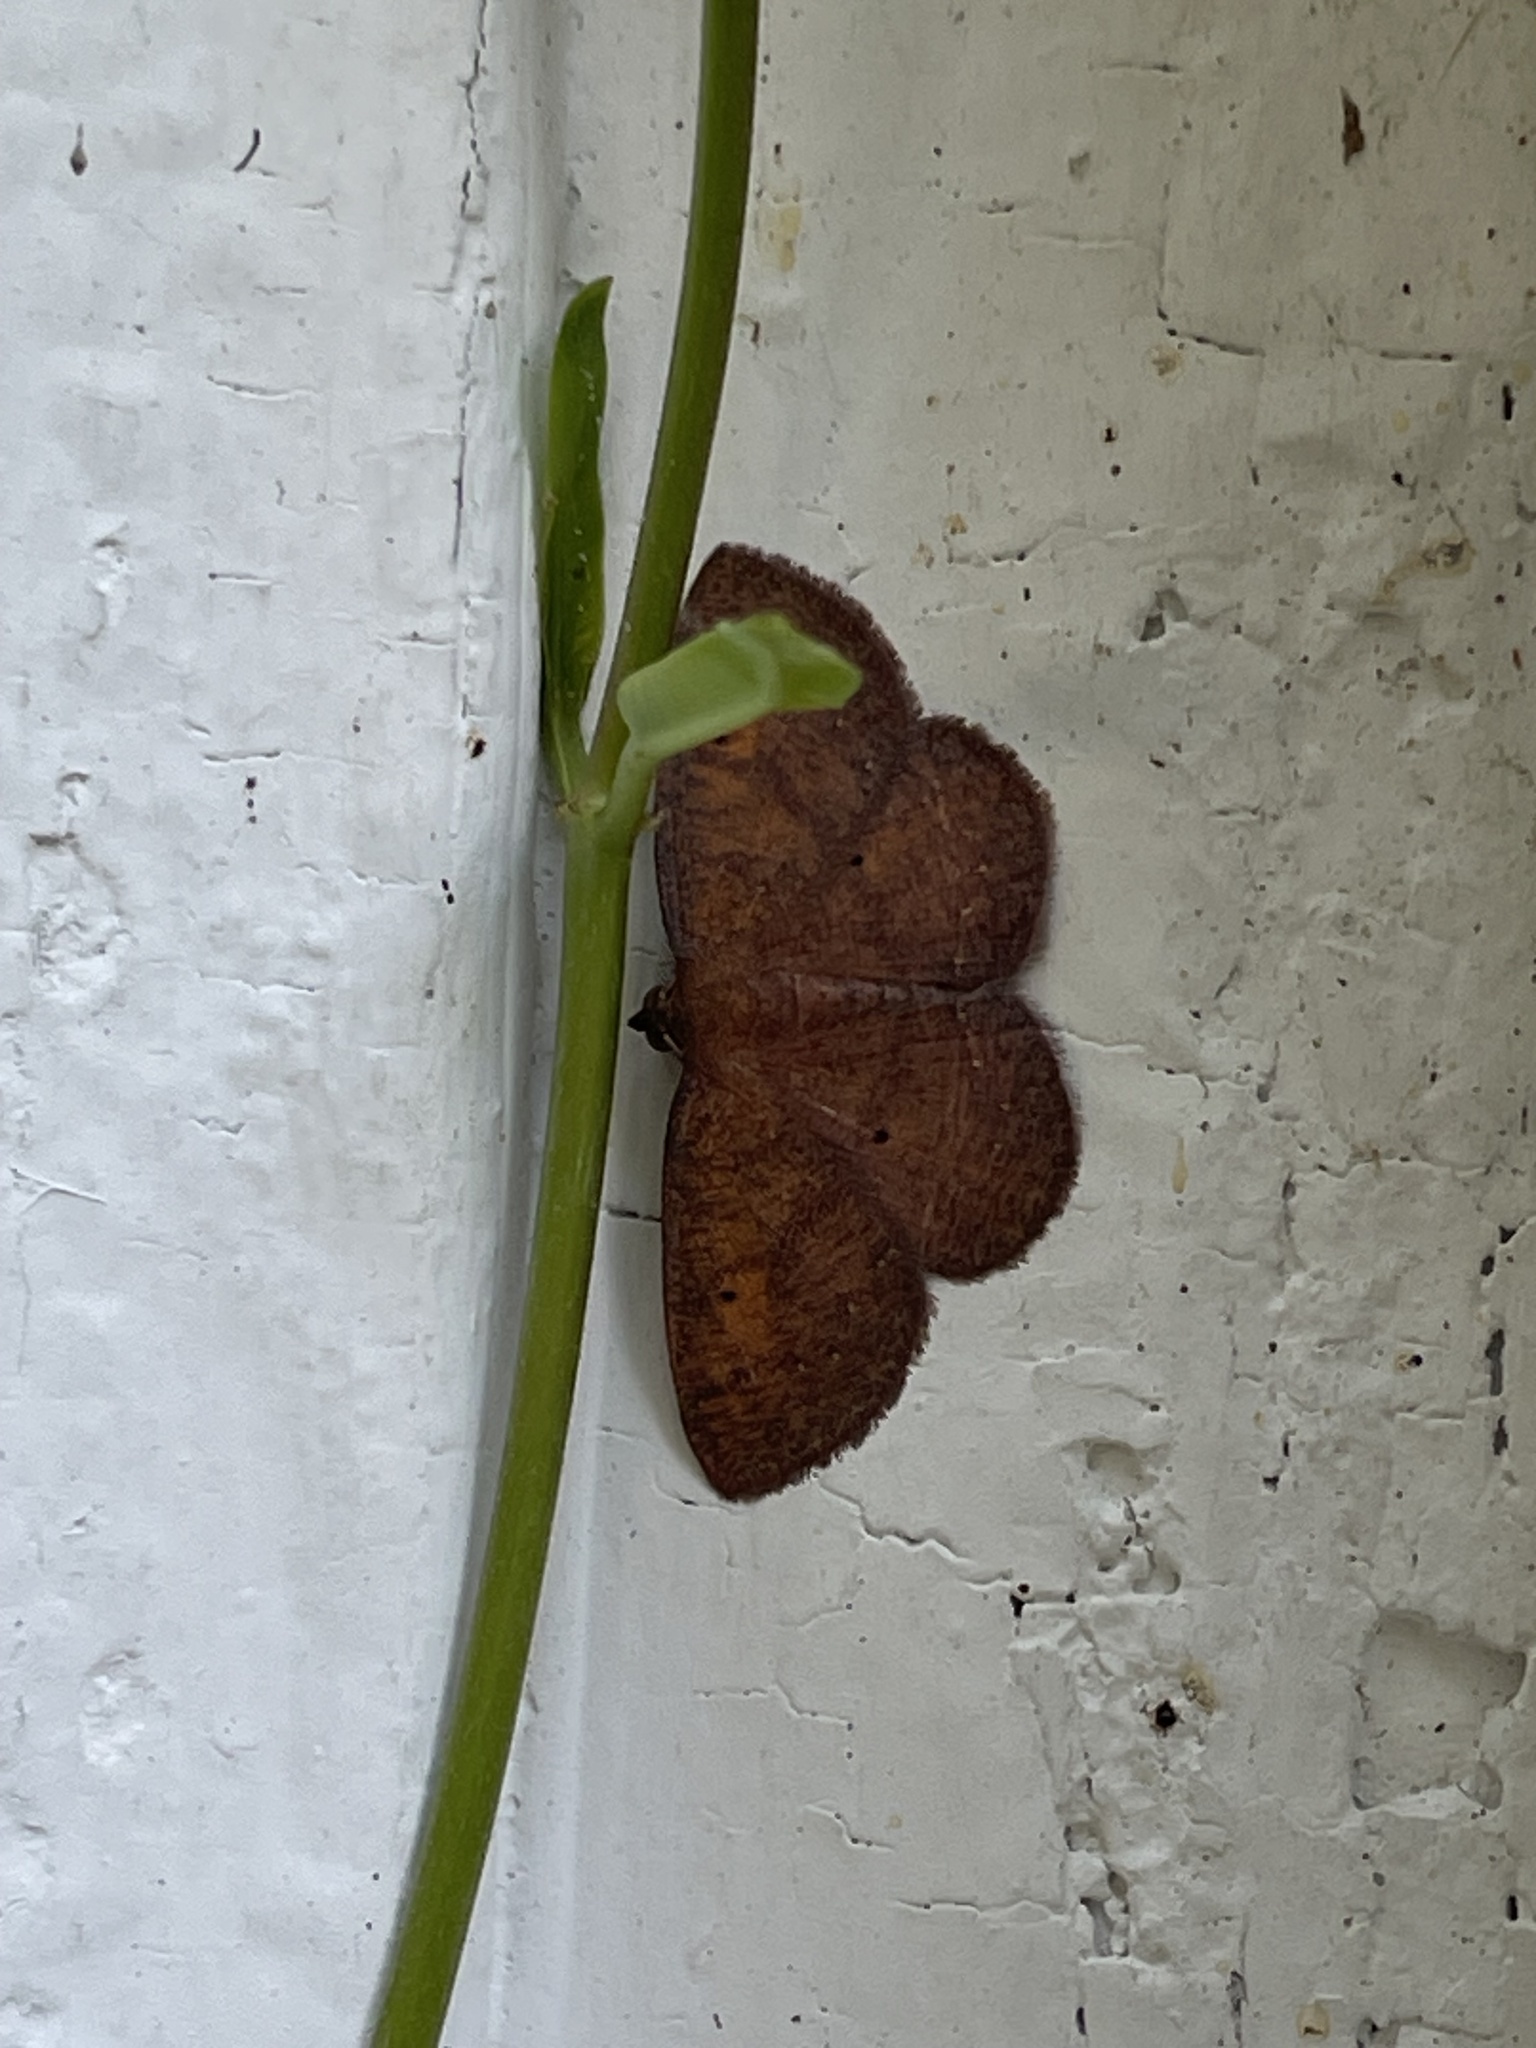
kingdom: Animalia
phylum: Arthropoda
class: Insecta
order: Lepidoptera
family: Geometridae
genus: Ilexia
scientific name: Ilexia intractata
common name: Black-dotted ruddy moth
